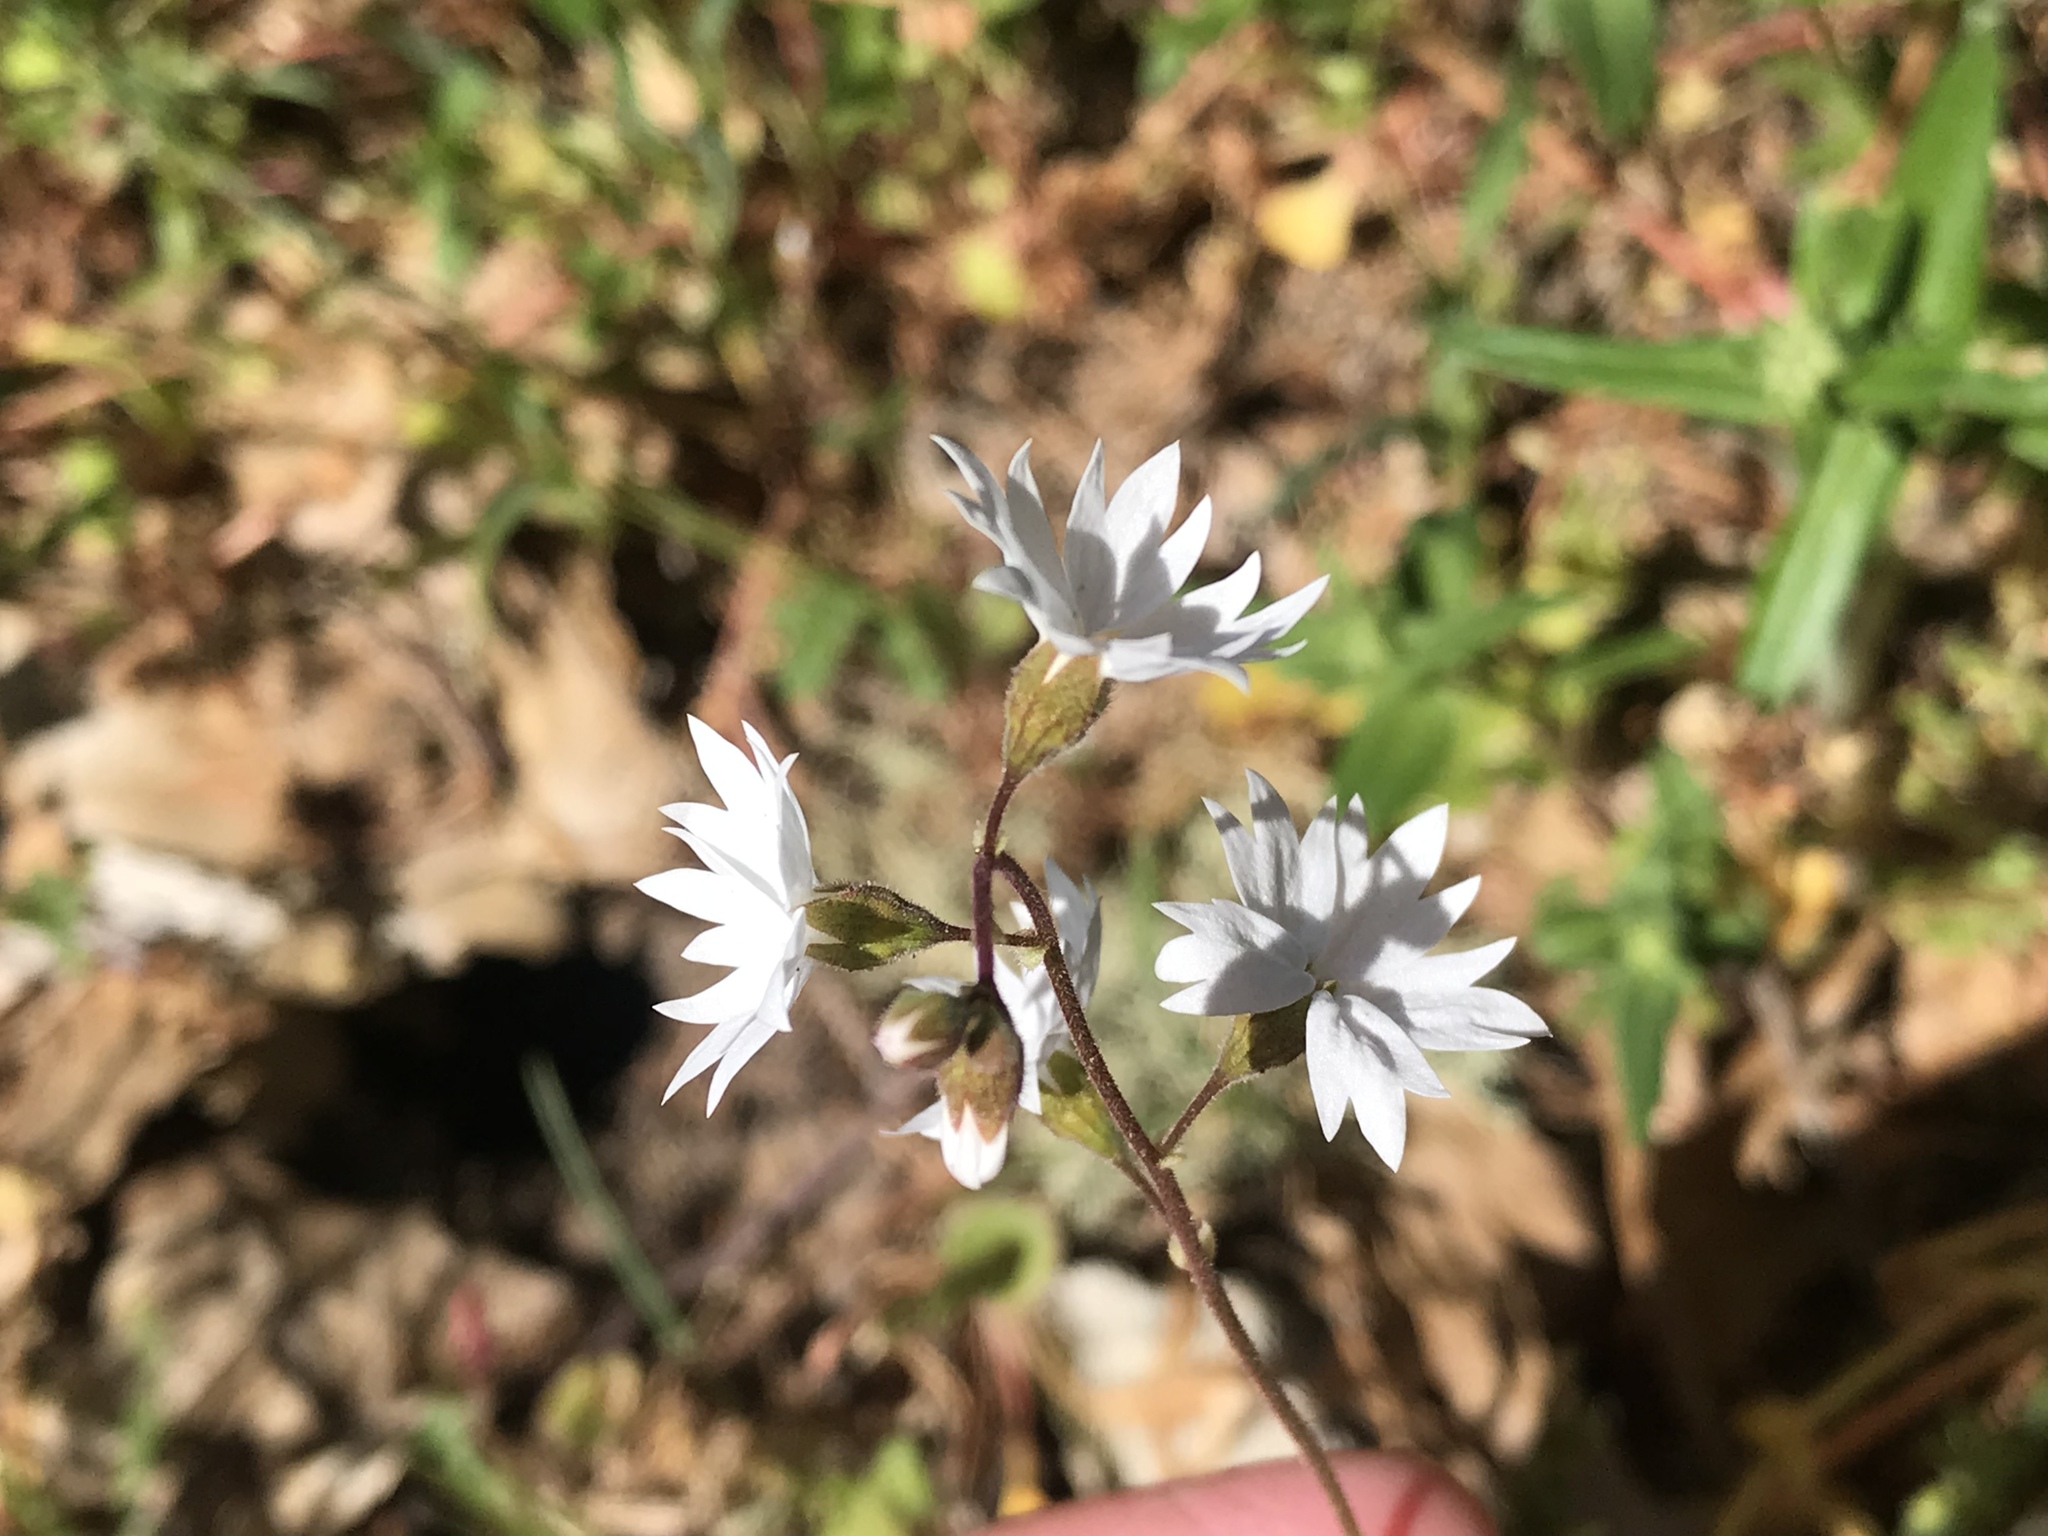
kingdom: Plantae
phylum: Tracheophyta
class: Magnoliopsida
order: Saxifragales
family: Saxifragaceae
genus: Lithophragma
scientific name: Lithophragma affine
